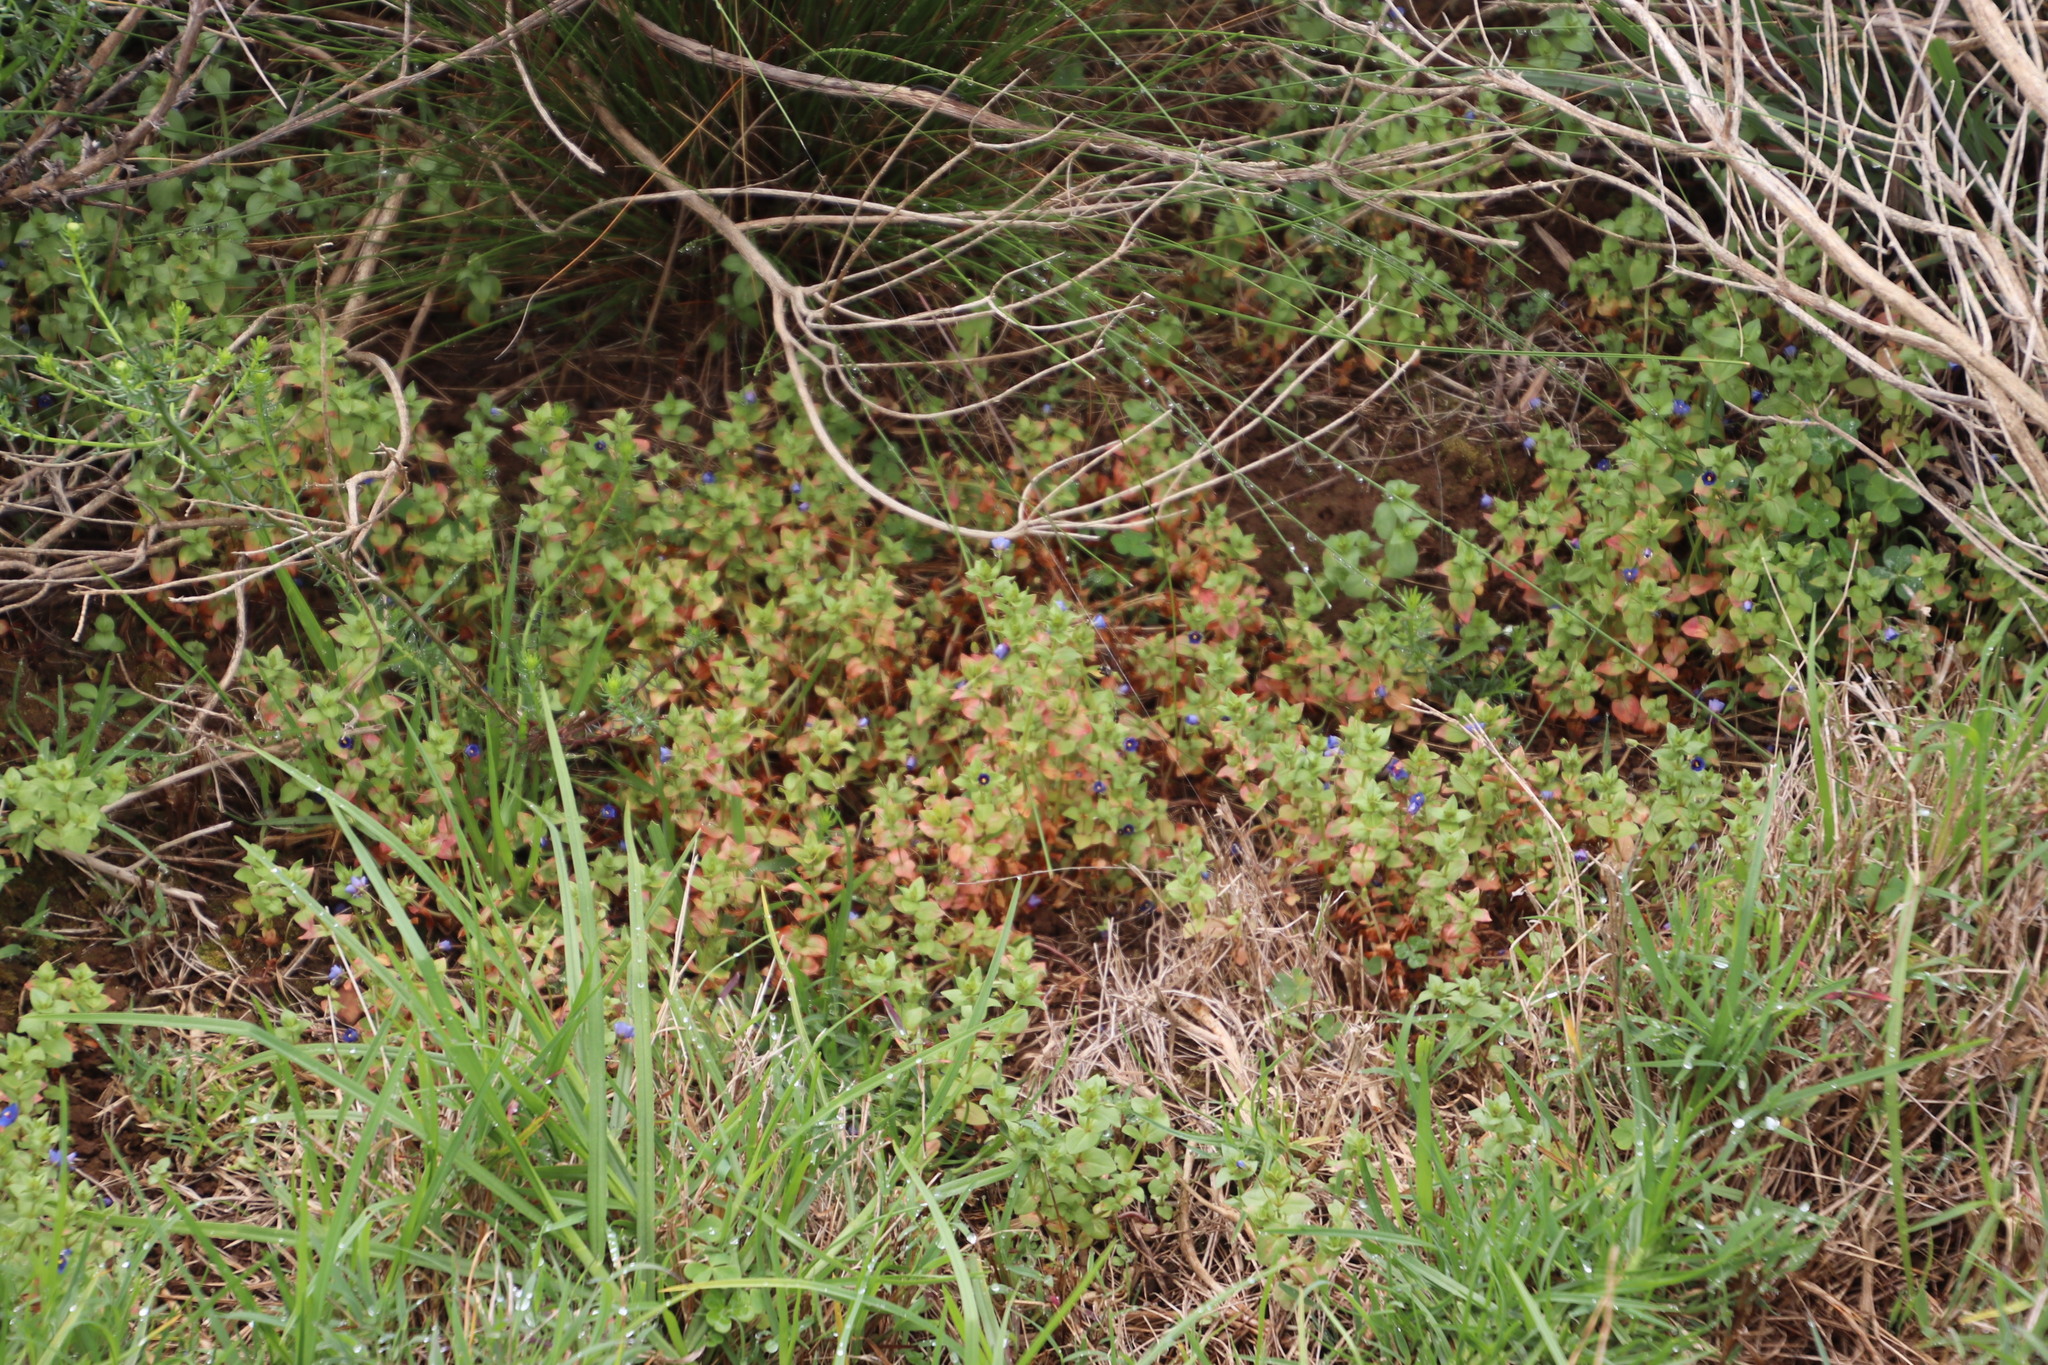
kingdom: Plantae
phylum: Tracheophyta
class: Magnoliopsida
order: Ericales
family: Primulaceae
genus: Lysimachia
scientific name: Lysimachia loeflingii
